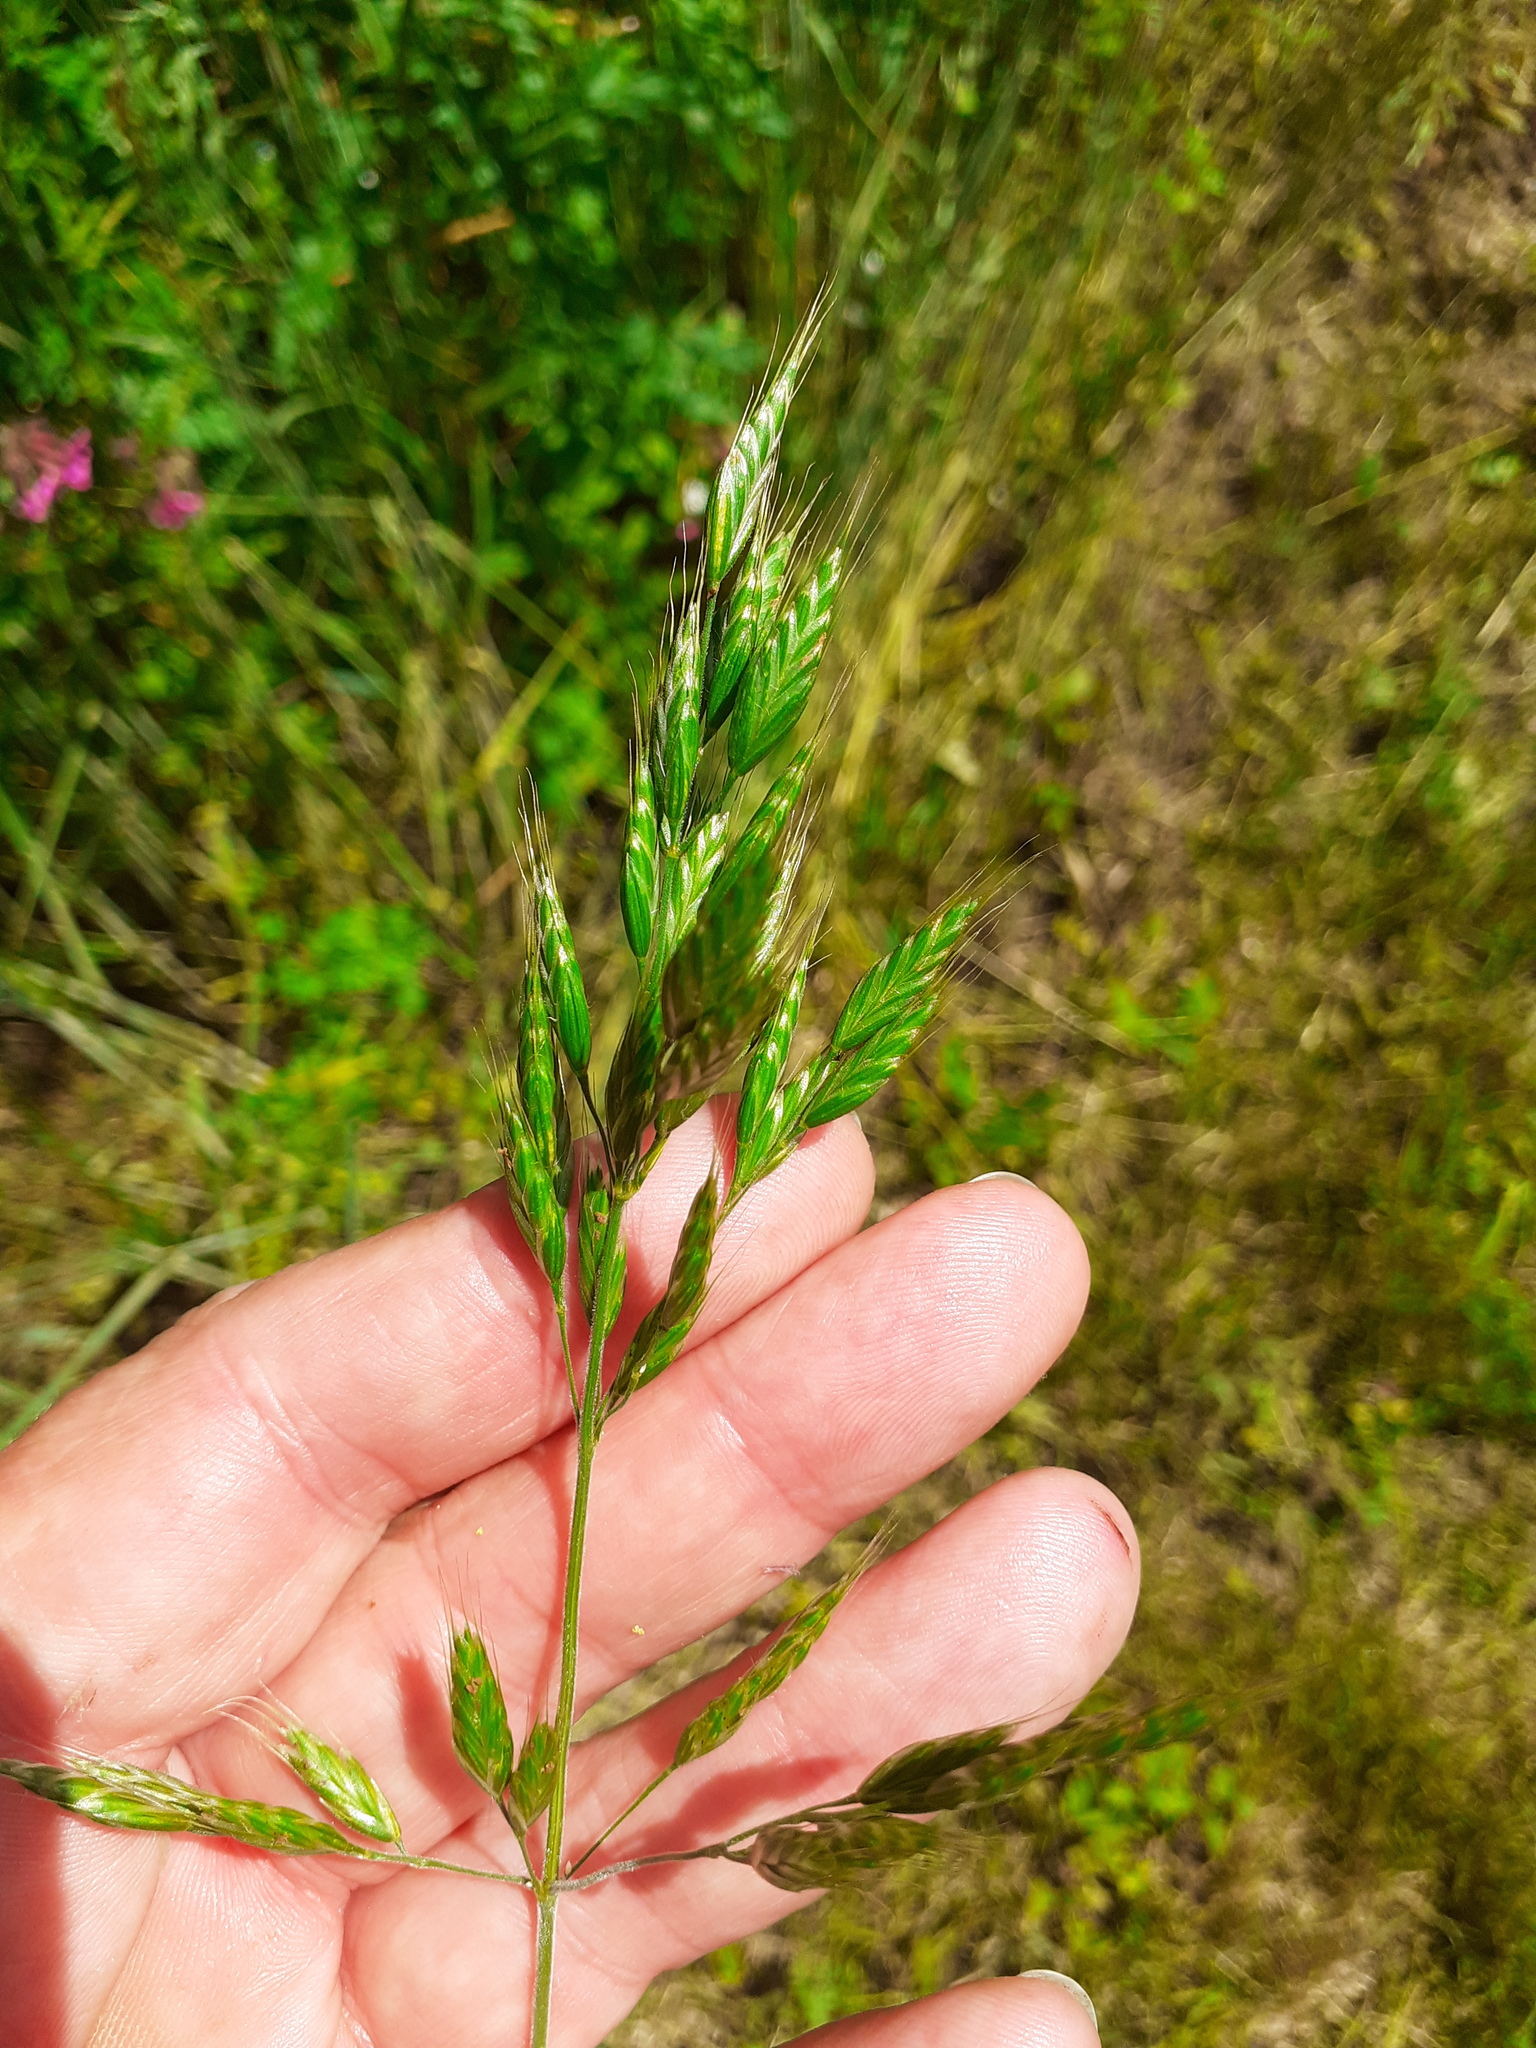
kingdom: Plantae
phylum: Tracheophyta
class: Liliopsida
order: Poales
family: Poaceae
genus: Bromus
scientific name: Bromus hordeaceus
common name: Soft brome
